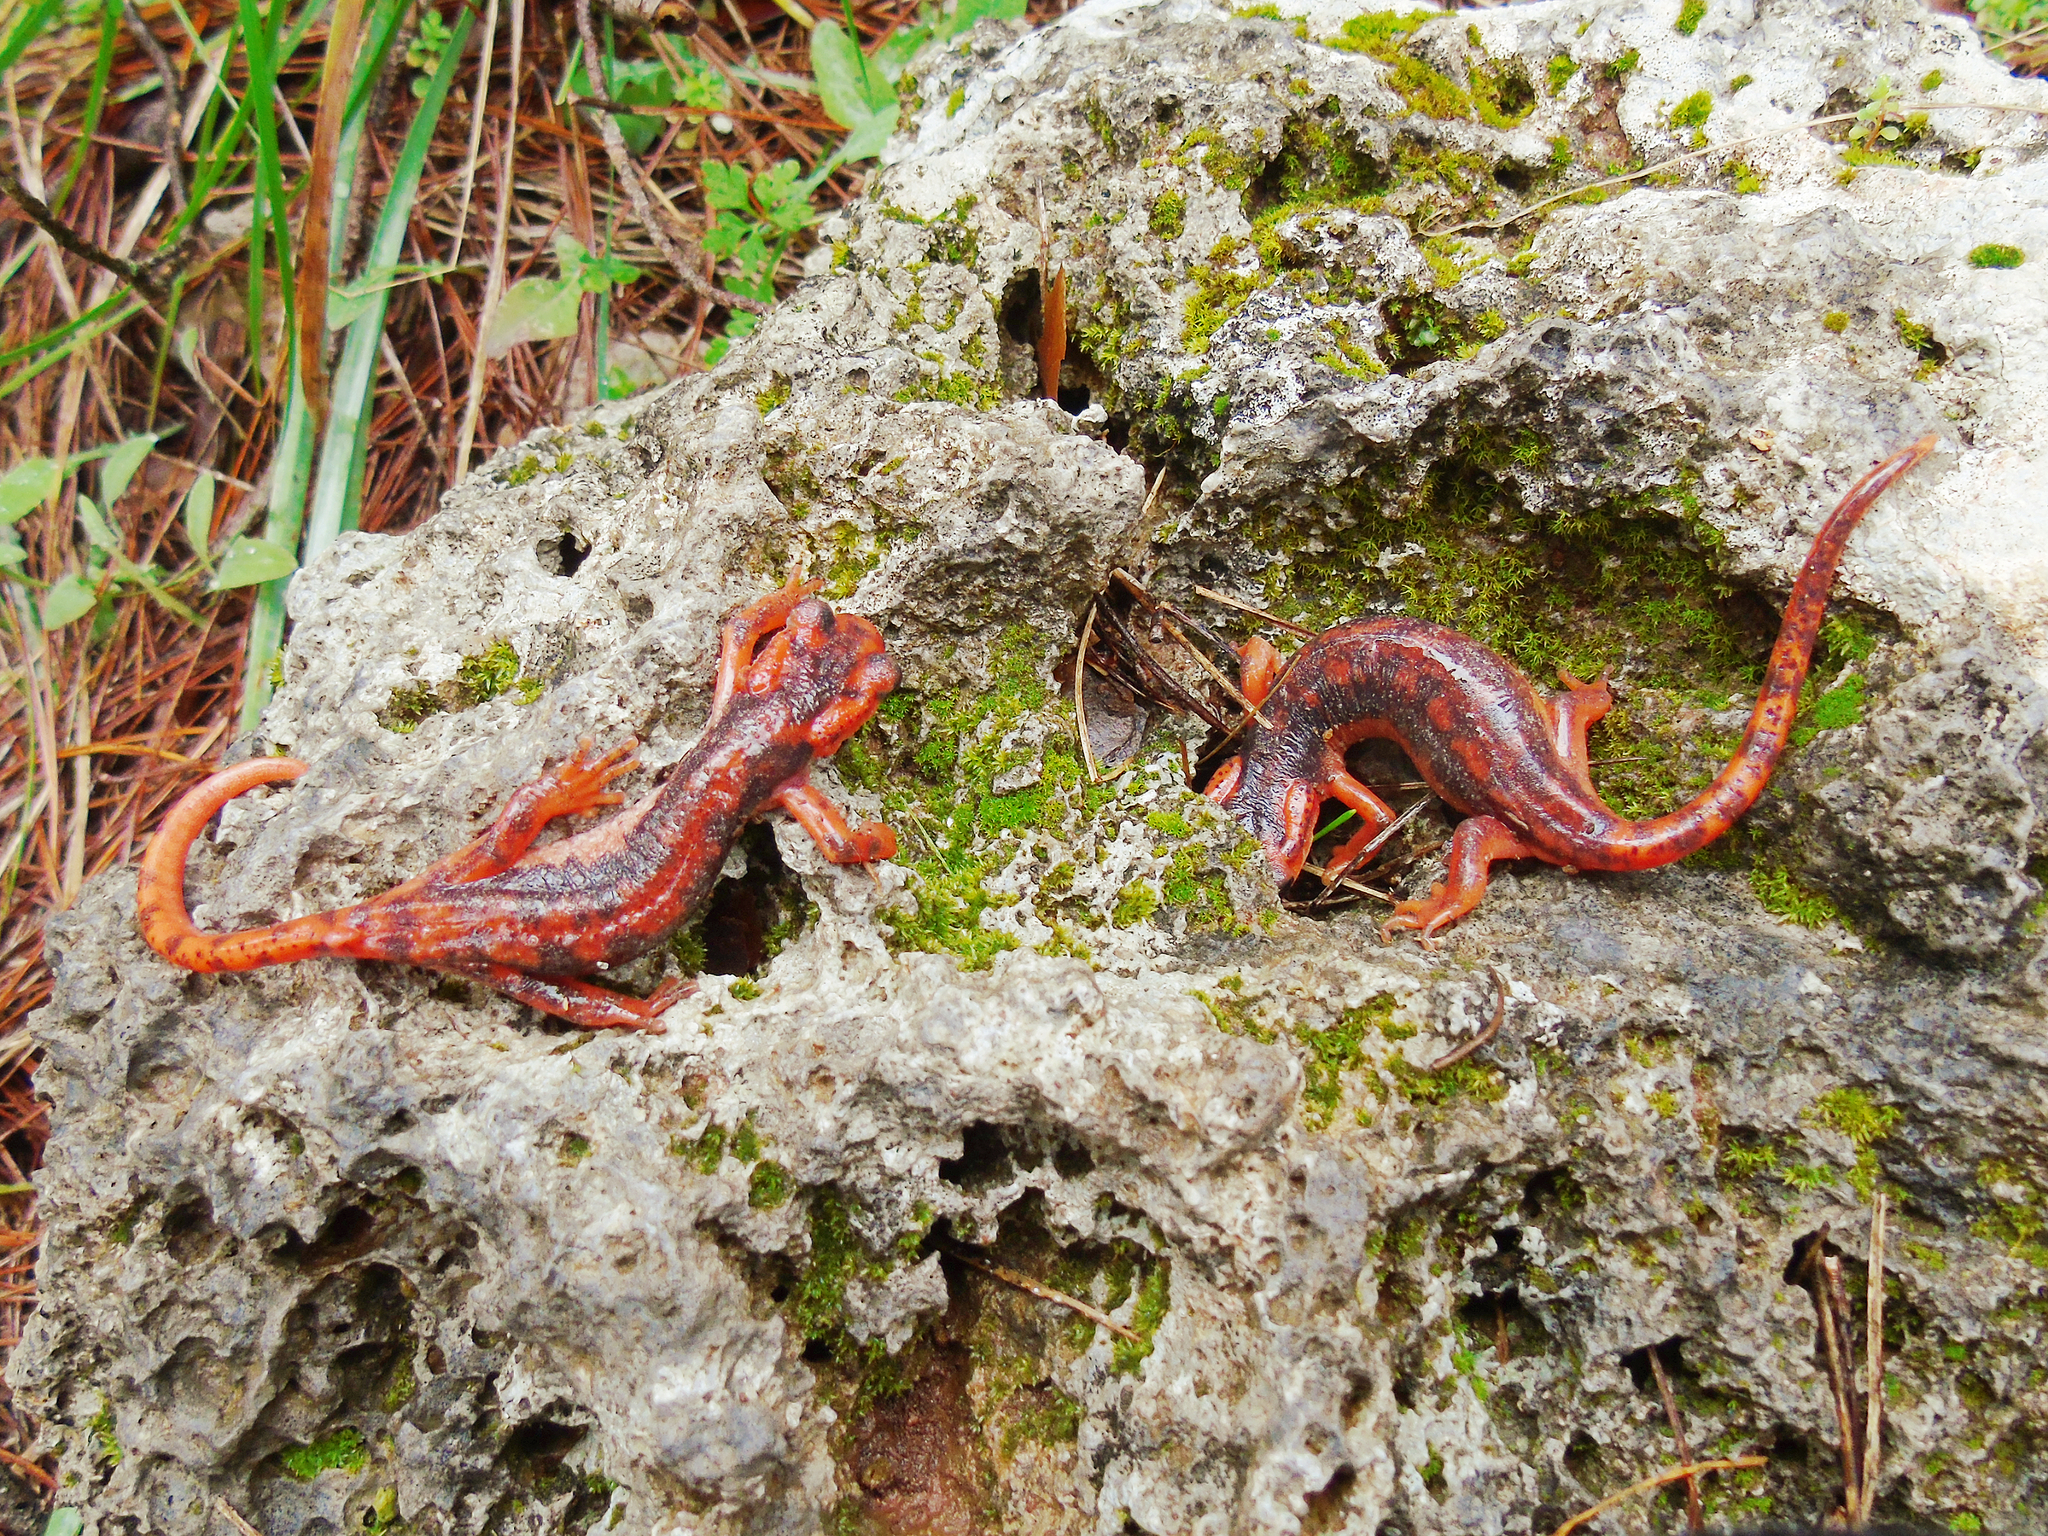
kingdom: Animalia
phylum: Chordata
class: Amphibia
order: Caudata
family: Salamandridae
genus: Lyciasalamandra
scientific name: Lyciasalamandra fazilae
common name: Fazila's salamander
